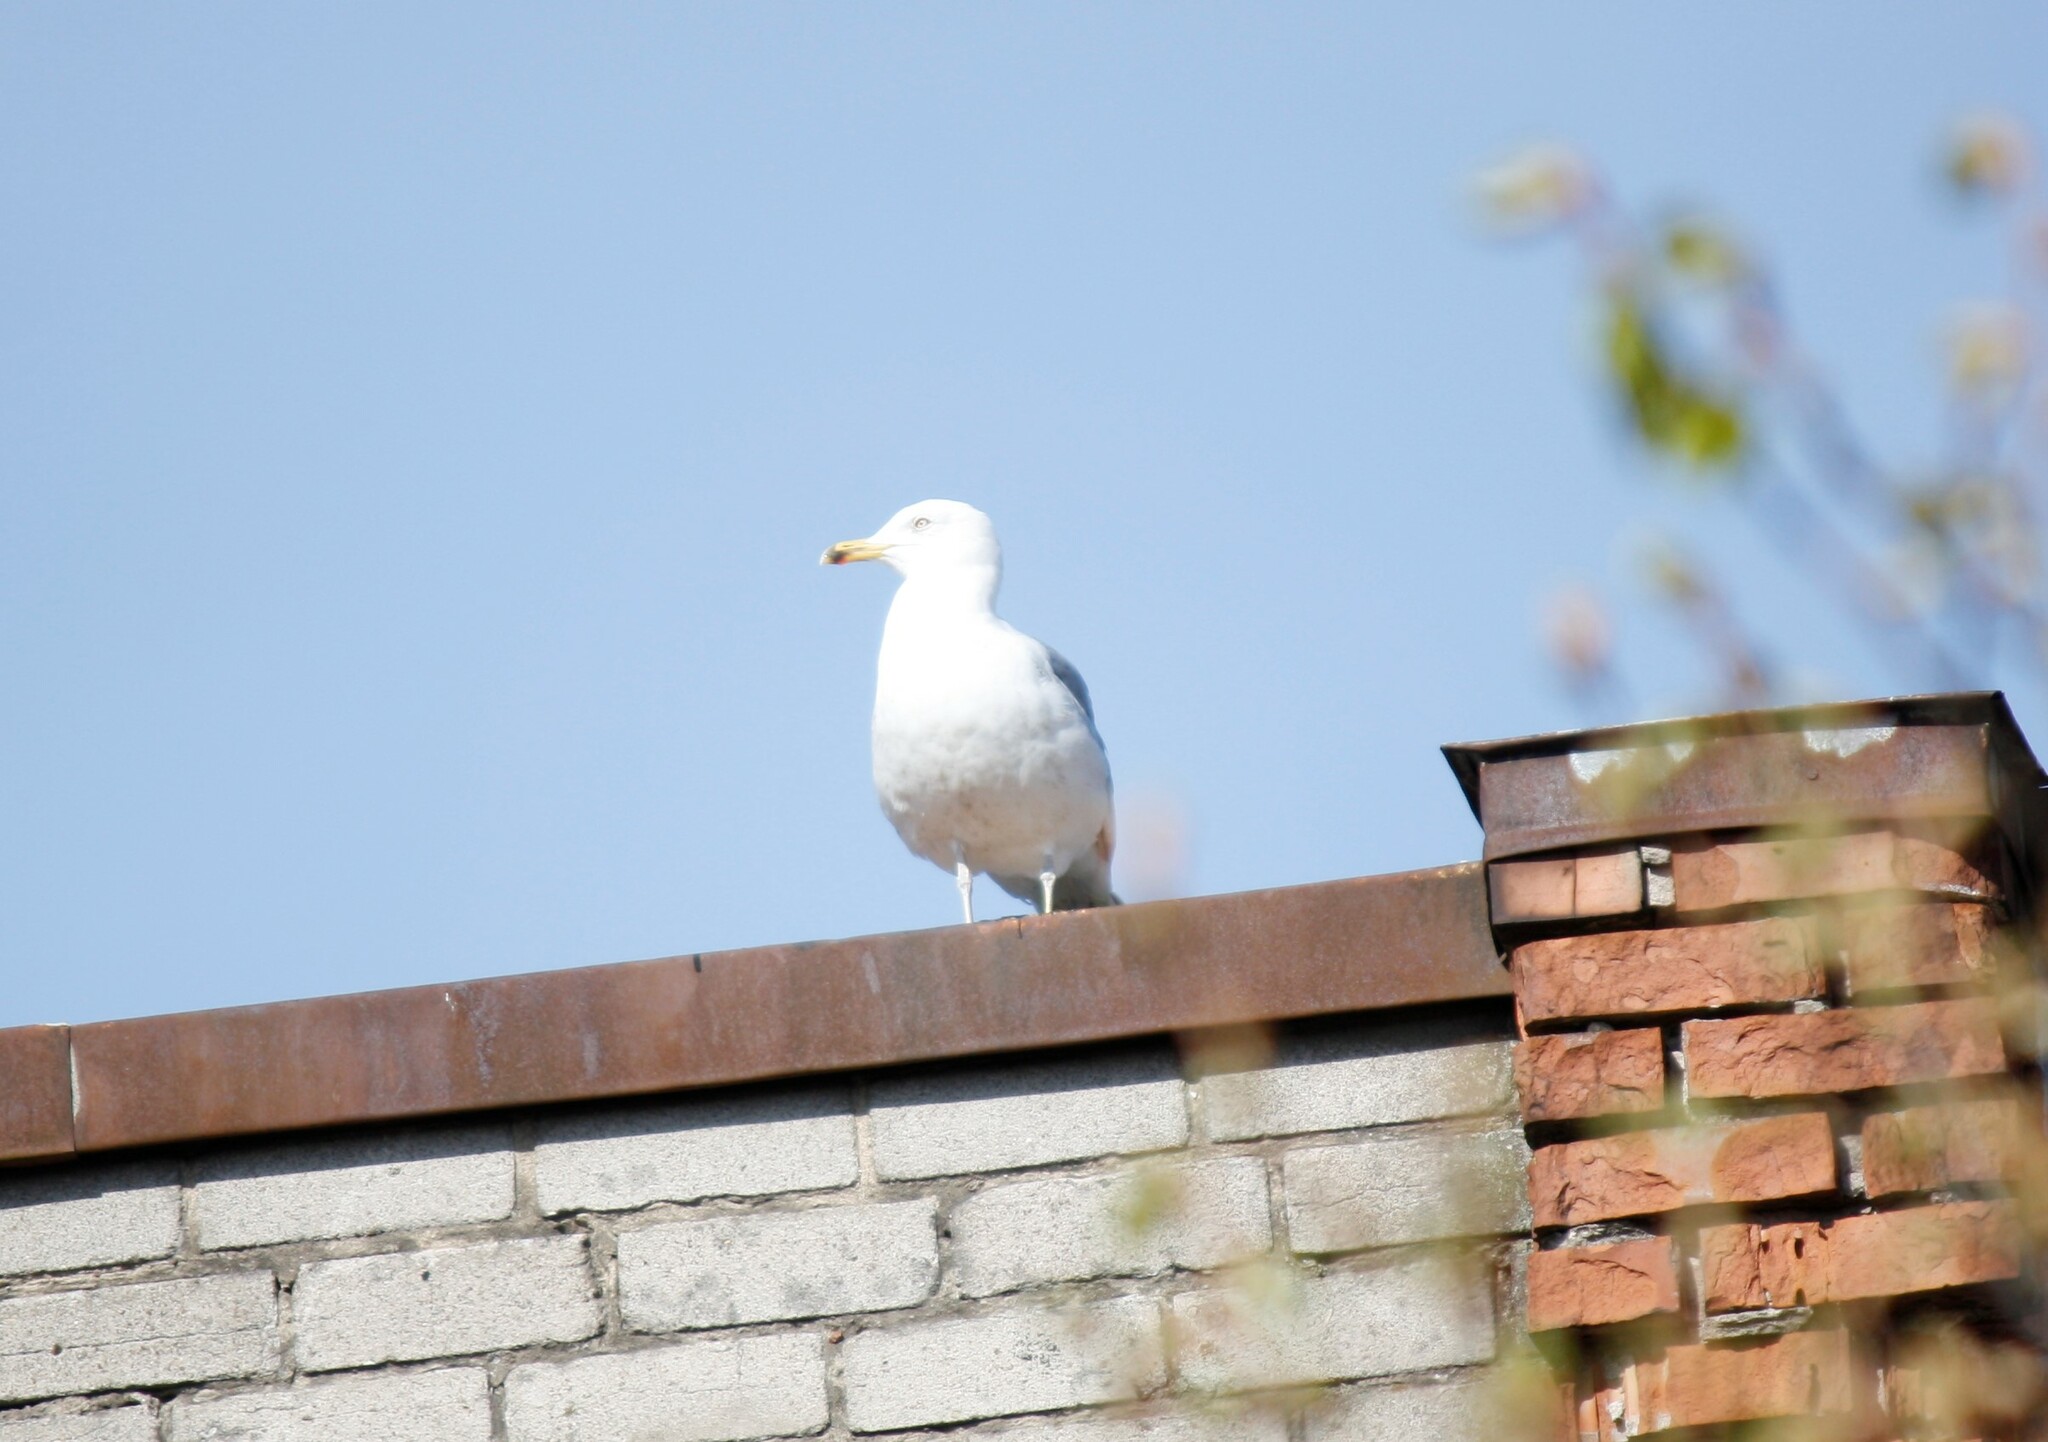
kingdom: Animalia
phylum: Chordata
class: Aves
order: Charadriiformes
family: Laridae
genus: Larus
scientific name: Larus argentatus
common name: Herring gull
